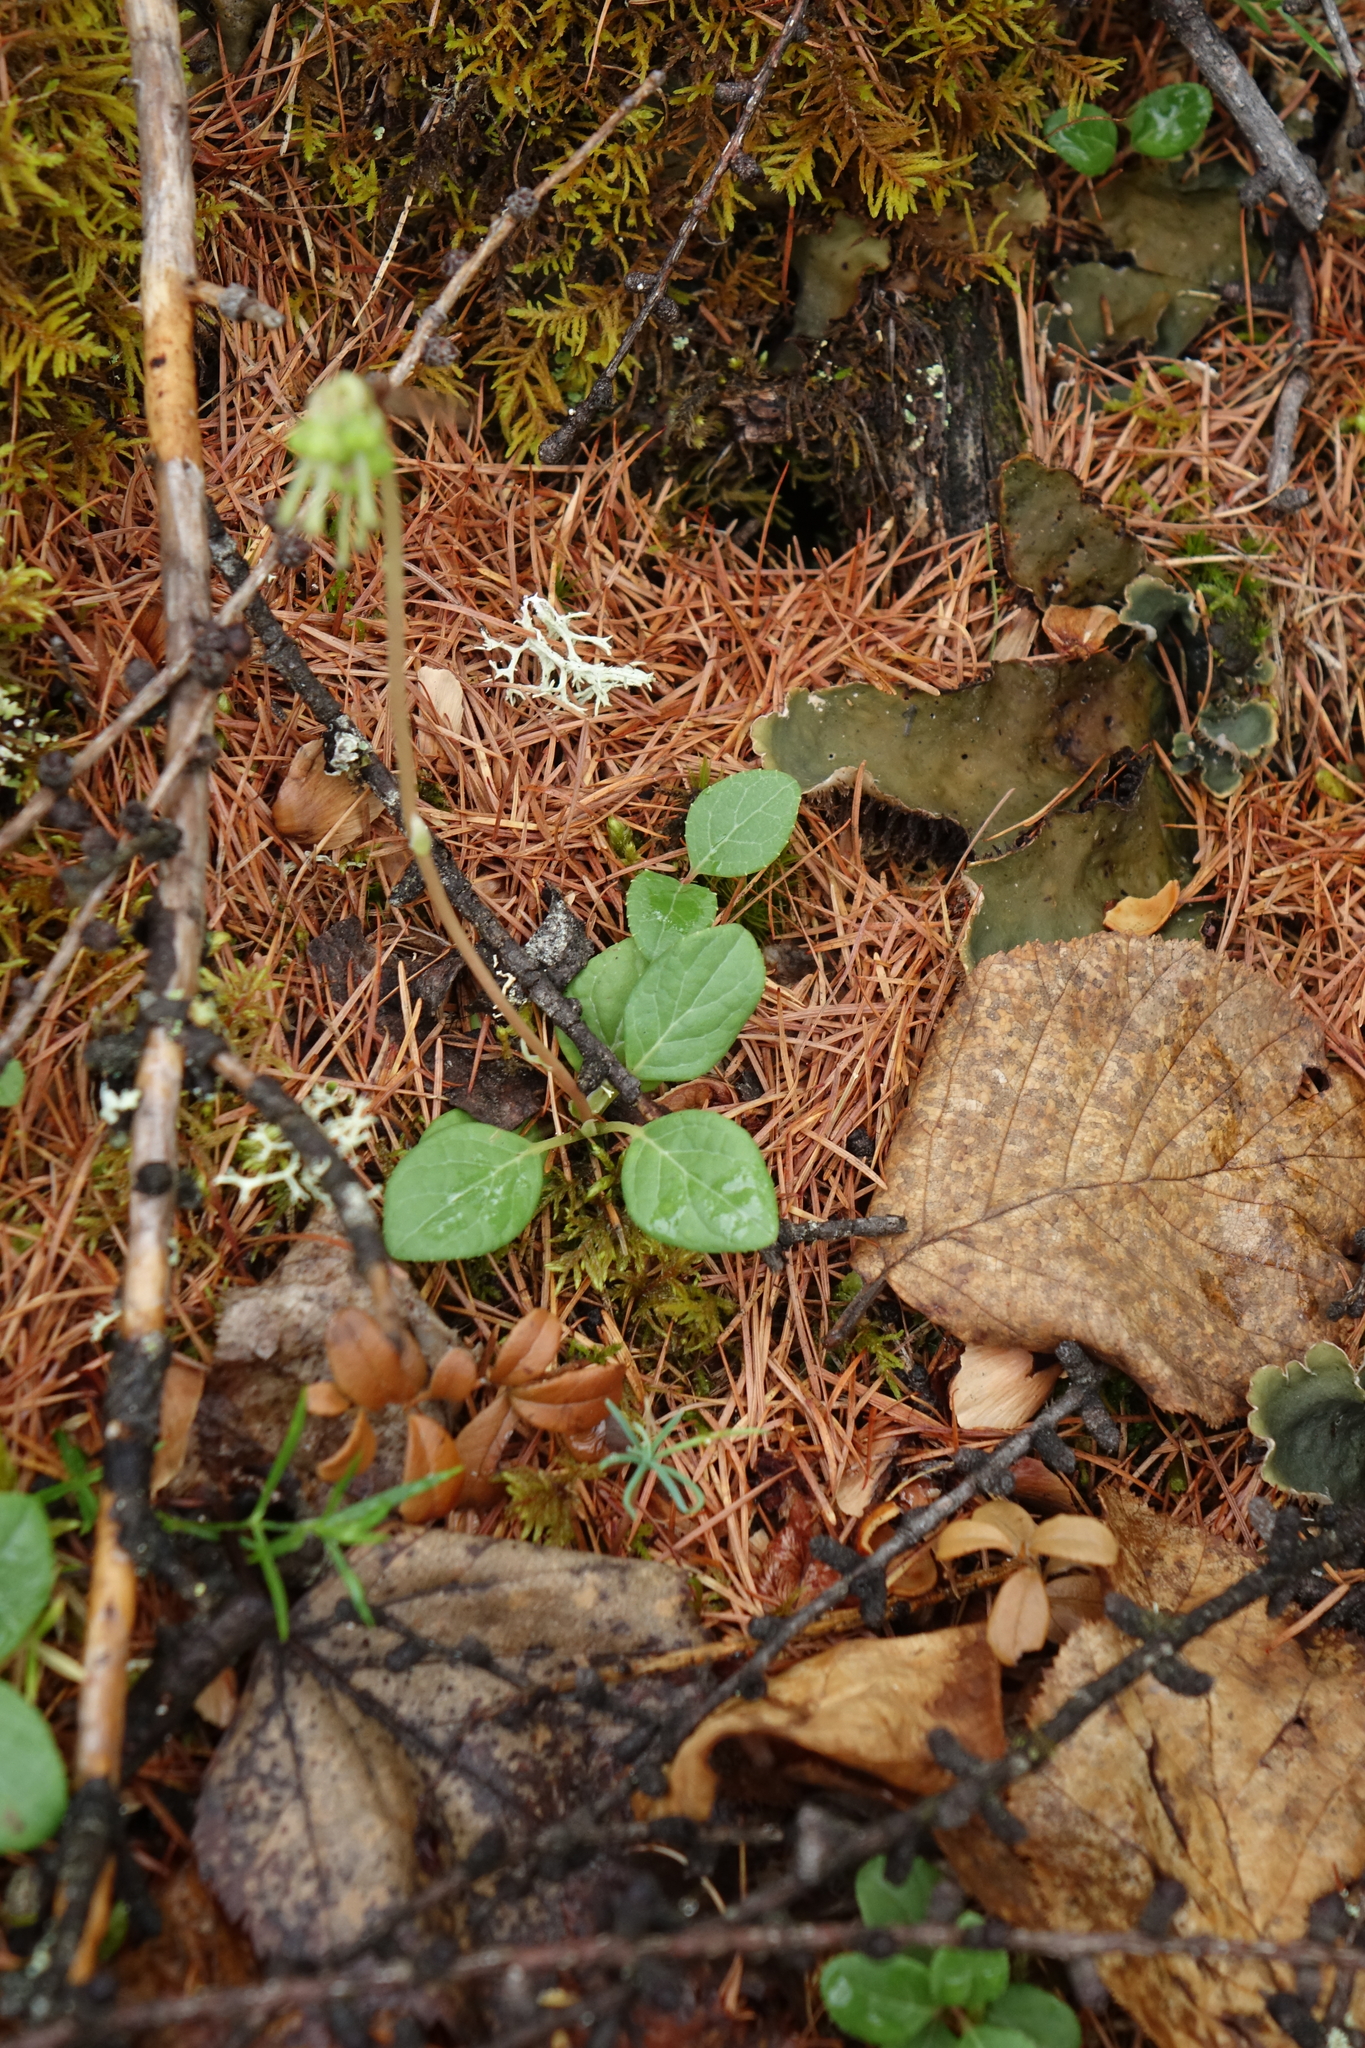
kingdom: Plantae
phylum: Tracheophyta
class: Magnoliopsida
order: Ericales
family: Ericaceae
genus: Orthilia
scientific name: Orthilia secunda
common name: One-sided orthilia
